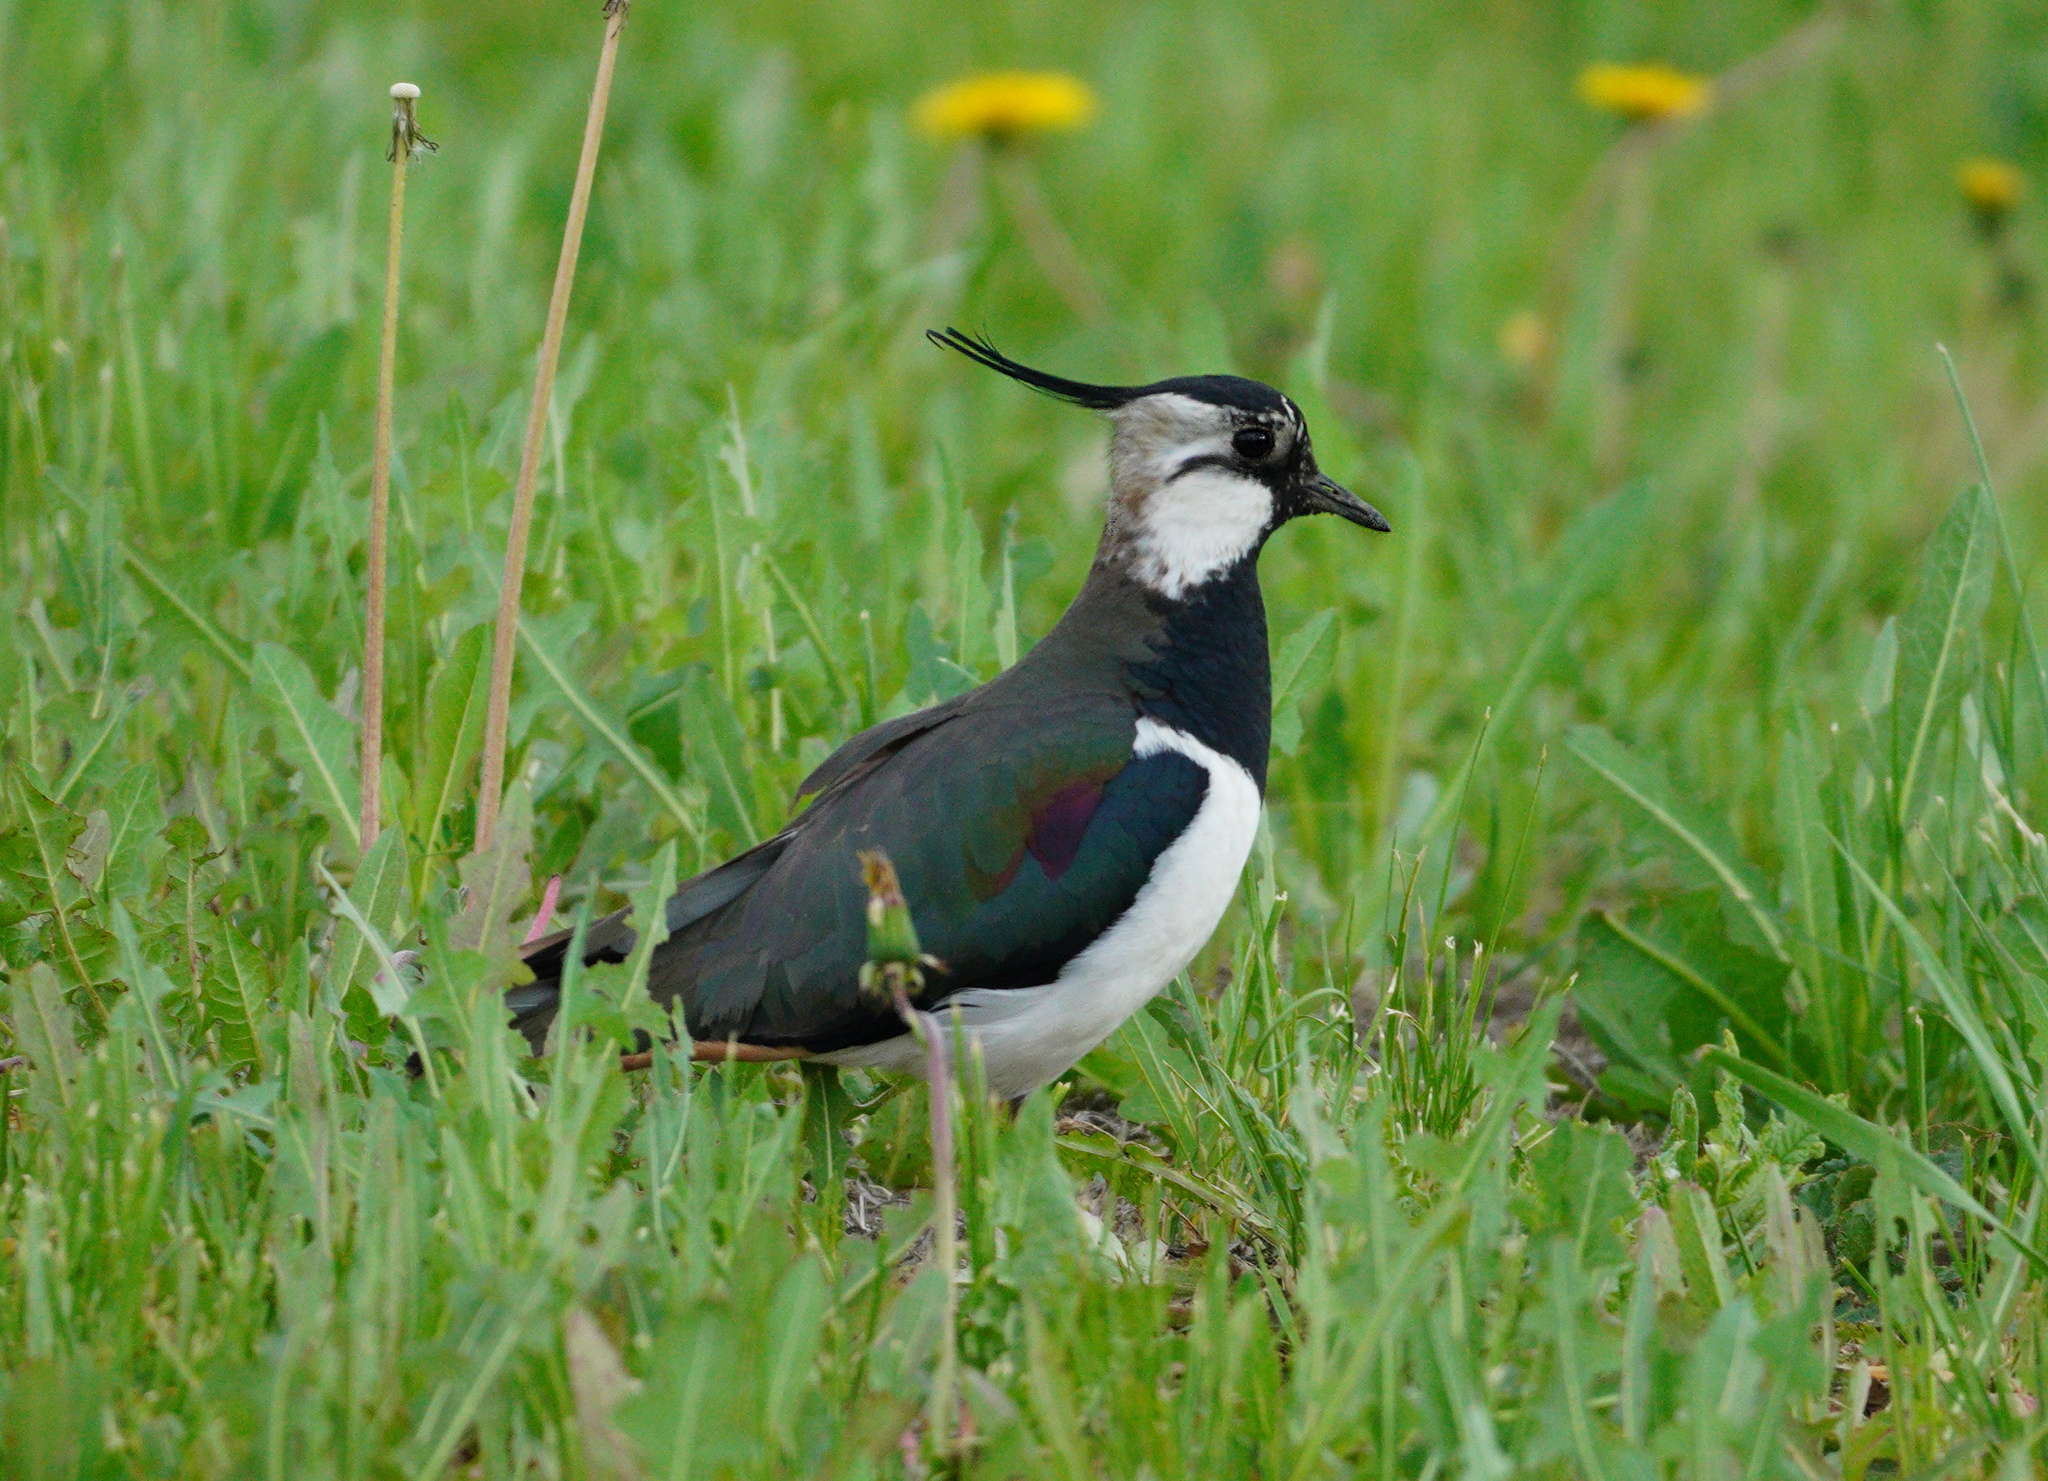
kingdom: Animalia
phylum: Chordata
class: Aves
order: Charadriiformes
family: Charadriidae
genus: Vanellus
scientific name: Vanellus vanellus
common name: Northern lapwing
